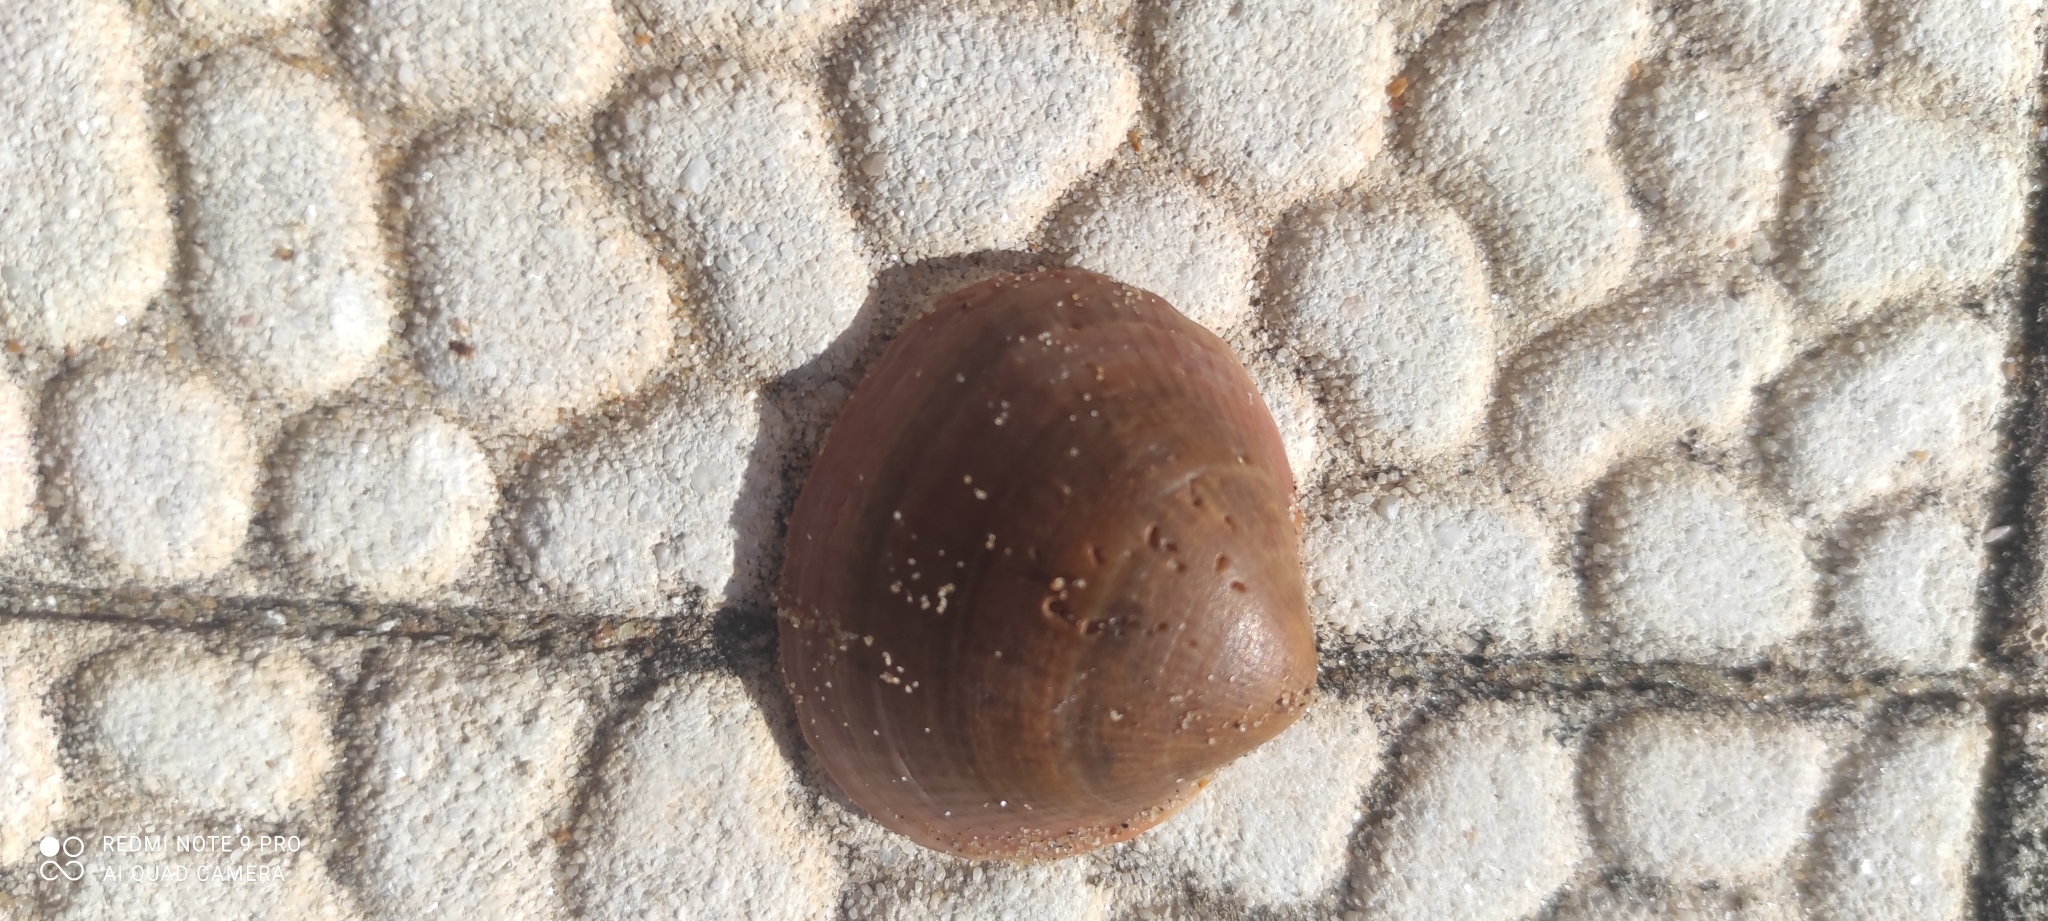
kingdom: Animalia
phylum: Mollusca
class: Bivalvia
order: Arcida
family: Glycymerididae
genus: Glycymeris
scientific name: Glycymeris nummaria
